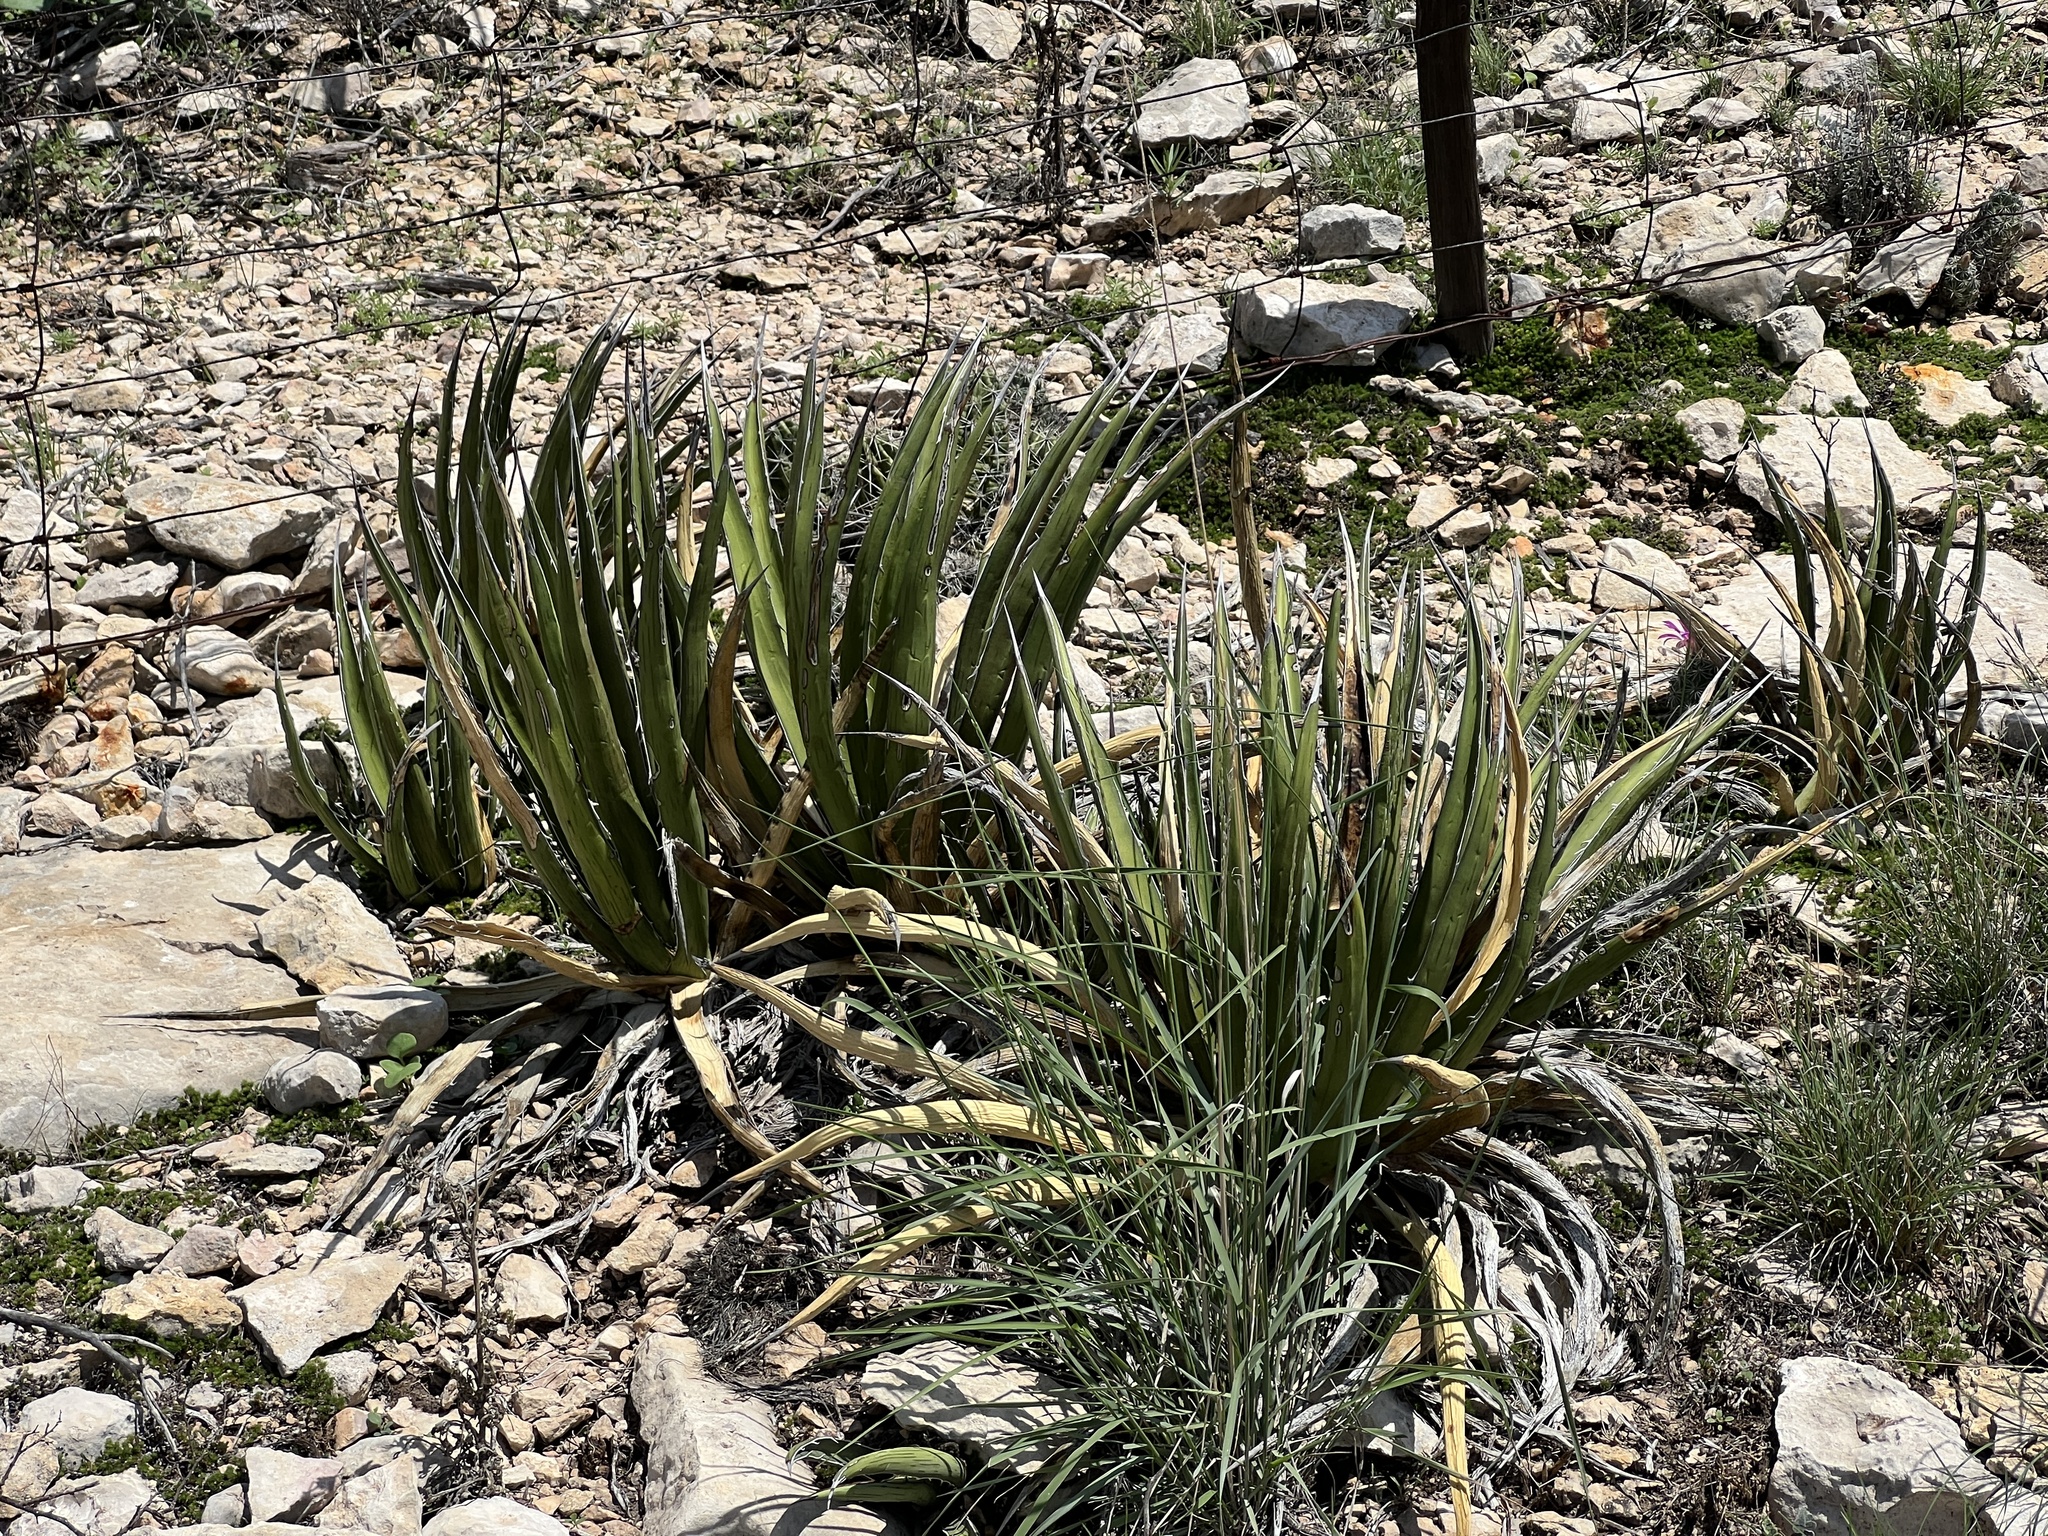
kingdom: Plantae
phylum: Tracheophyta
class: Liliopsida
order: Asparagales
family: Asparagaceae
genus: Agave
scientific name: Agave lechuguilla
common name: Lecheguilla agave
